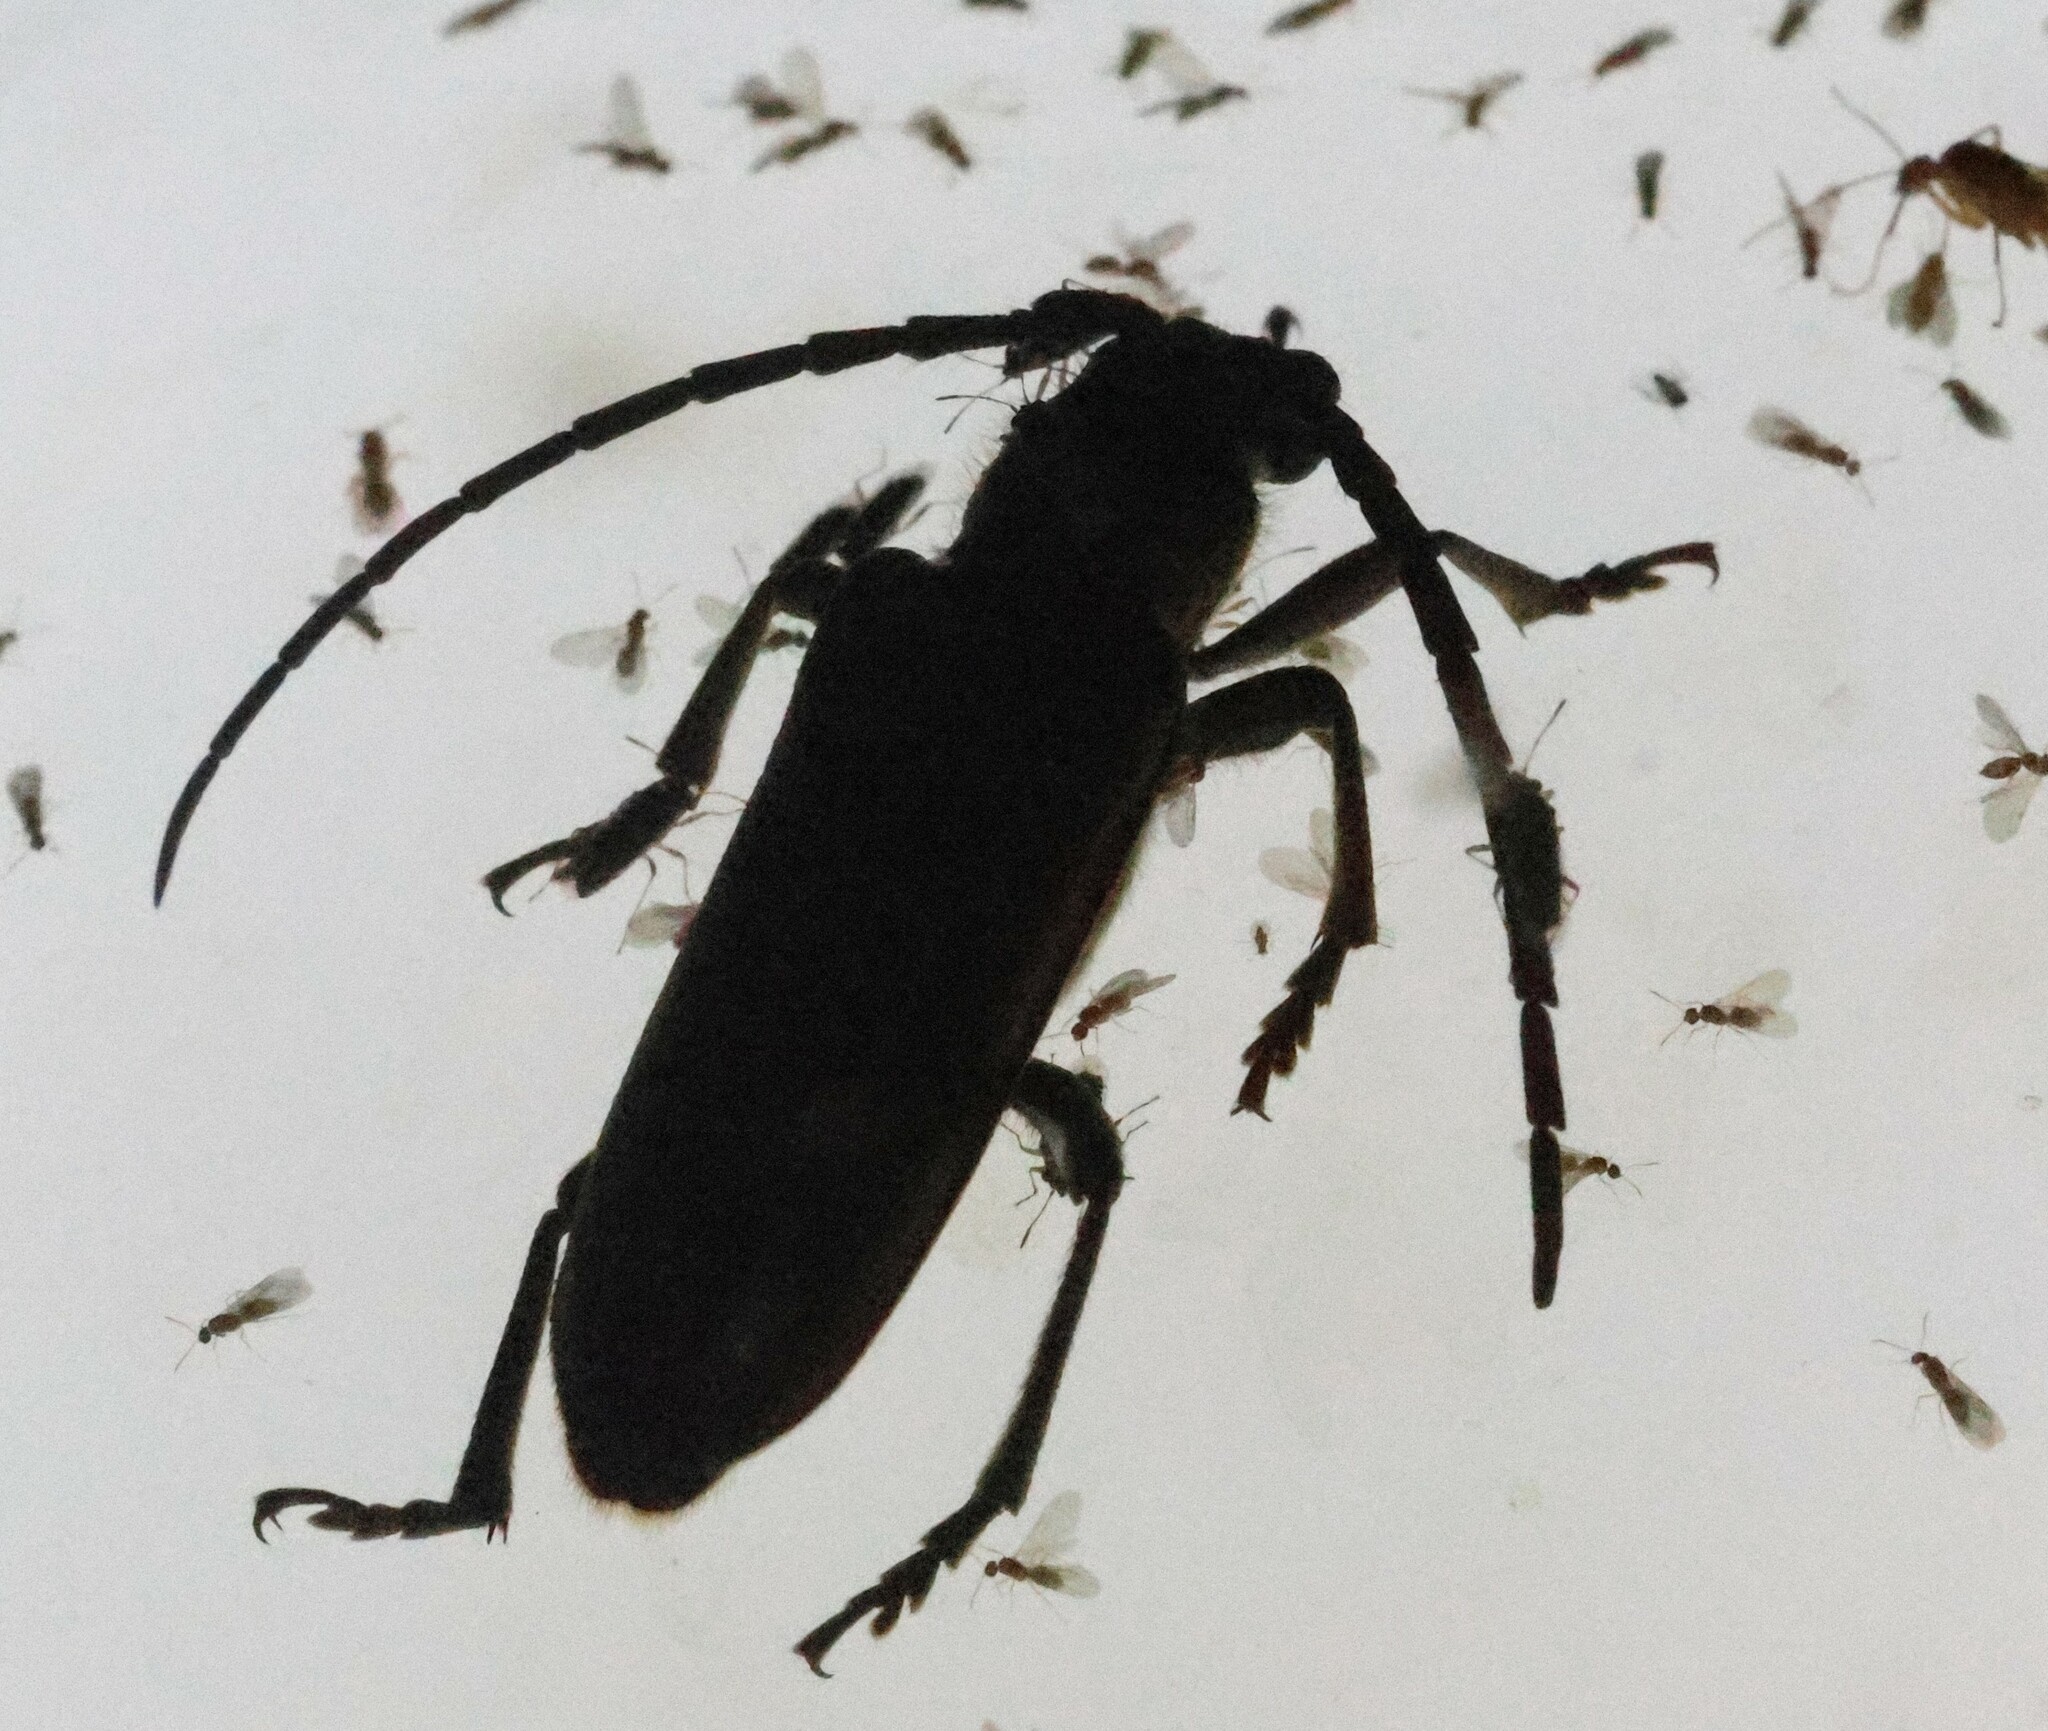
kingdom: Animalia
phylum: Arthropoda
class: Insecta
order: Coleoptera
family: Cerambycidae
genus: Africophanes
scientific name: Africophanes amicus
